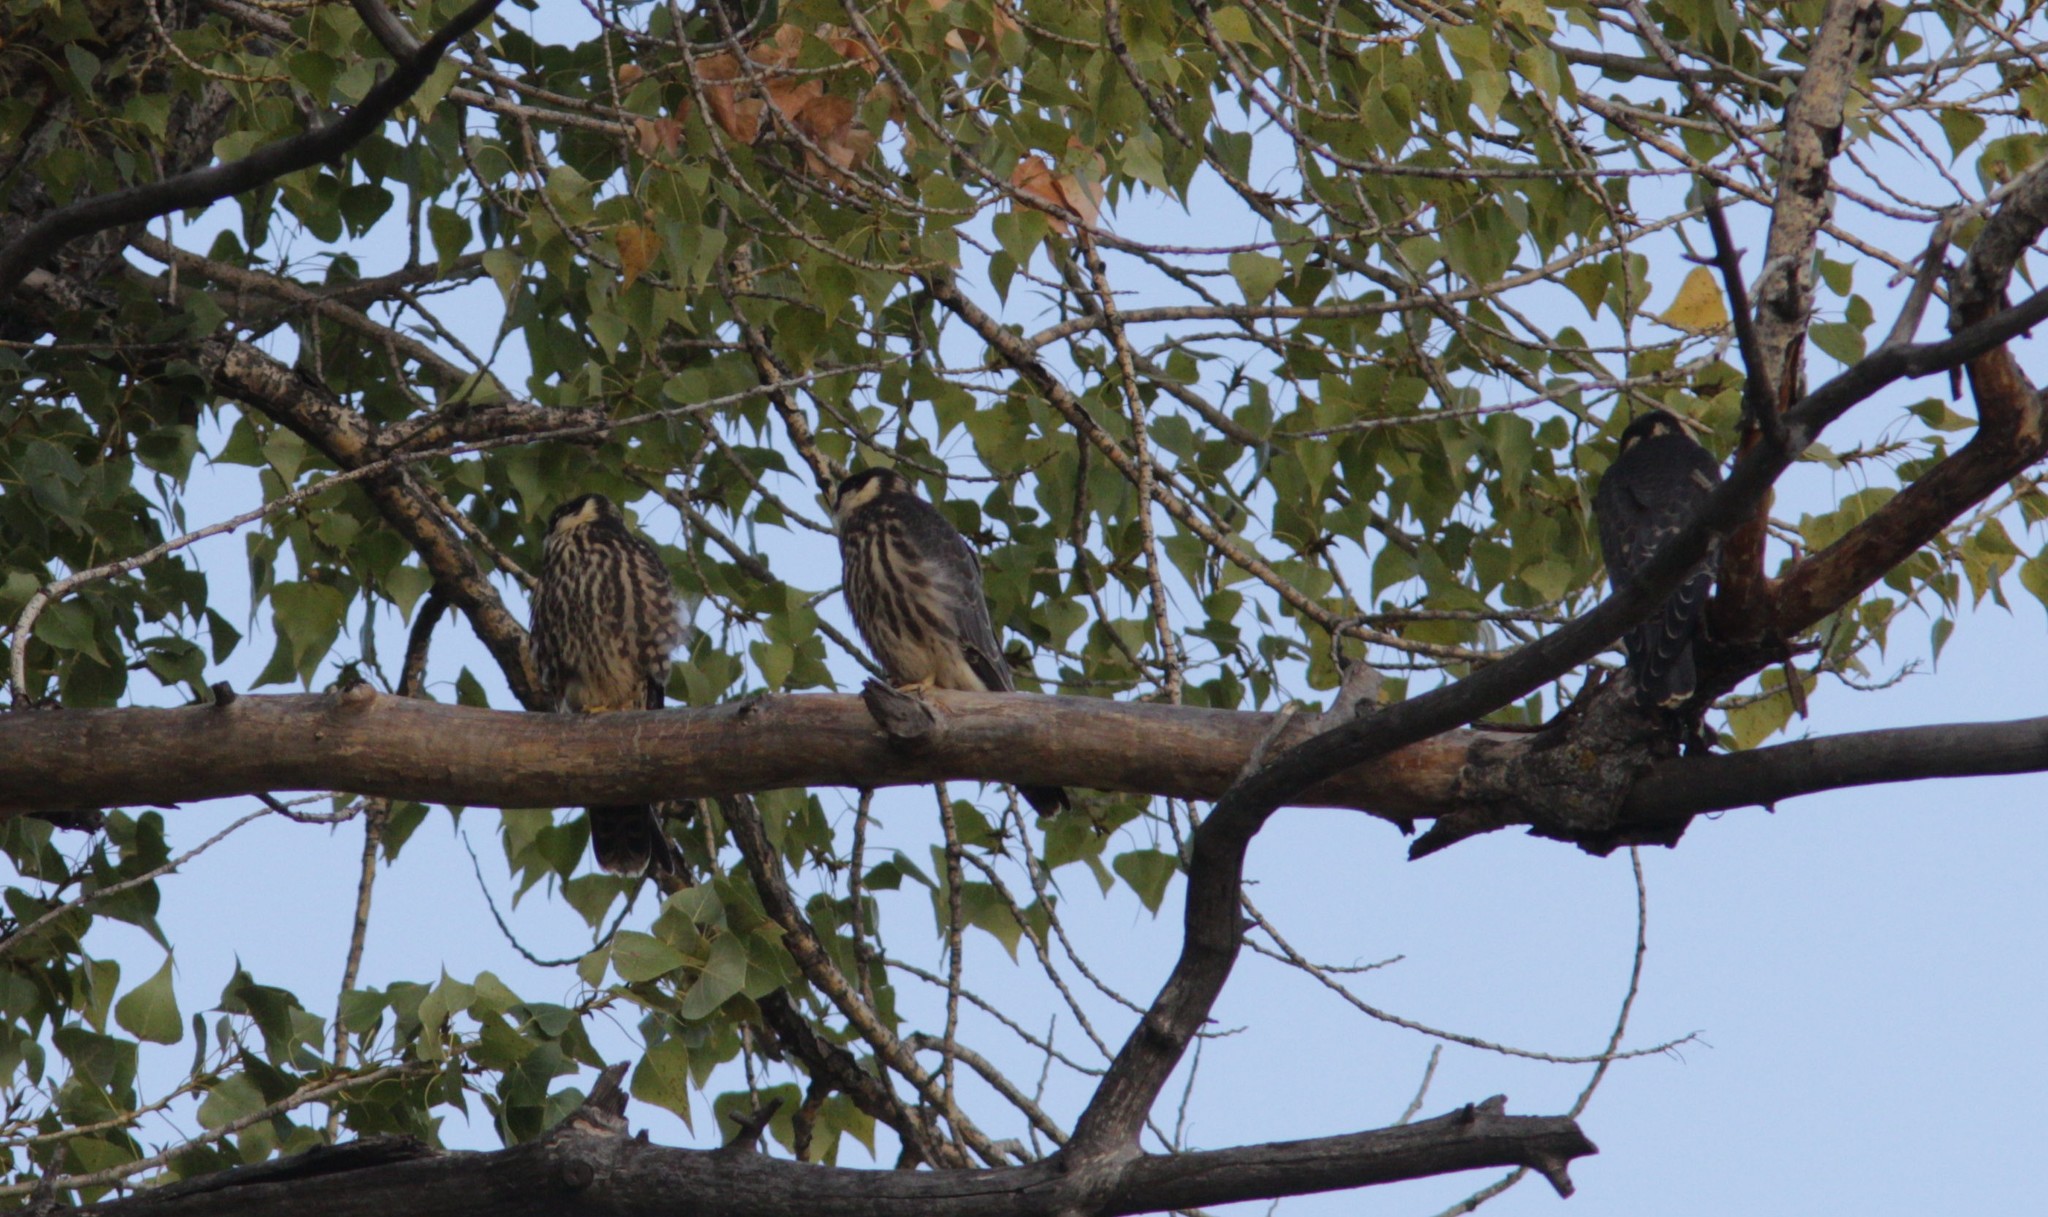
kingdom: Animalia
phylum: Chordata
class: Aves
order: Falconiformes
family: Falconidae
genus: Falco
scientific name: Falco subbuteo
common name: Eurasian hobby
